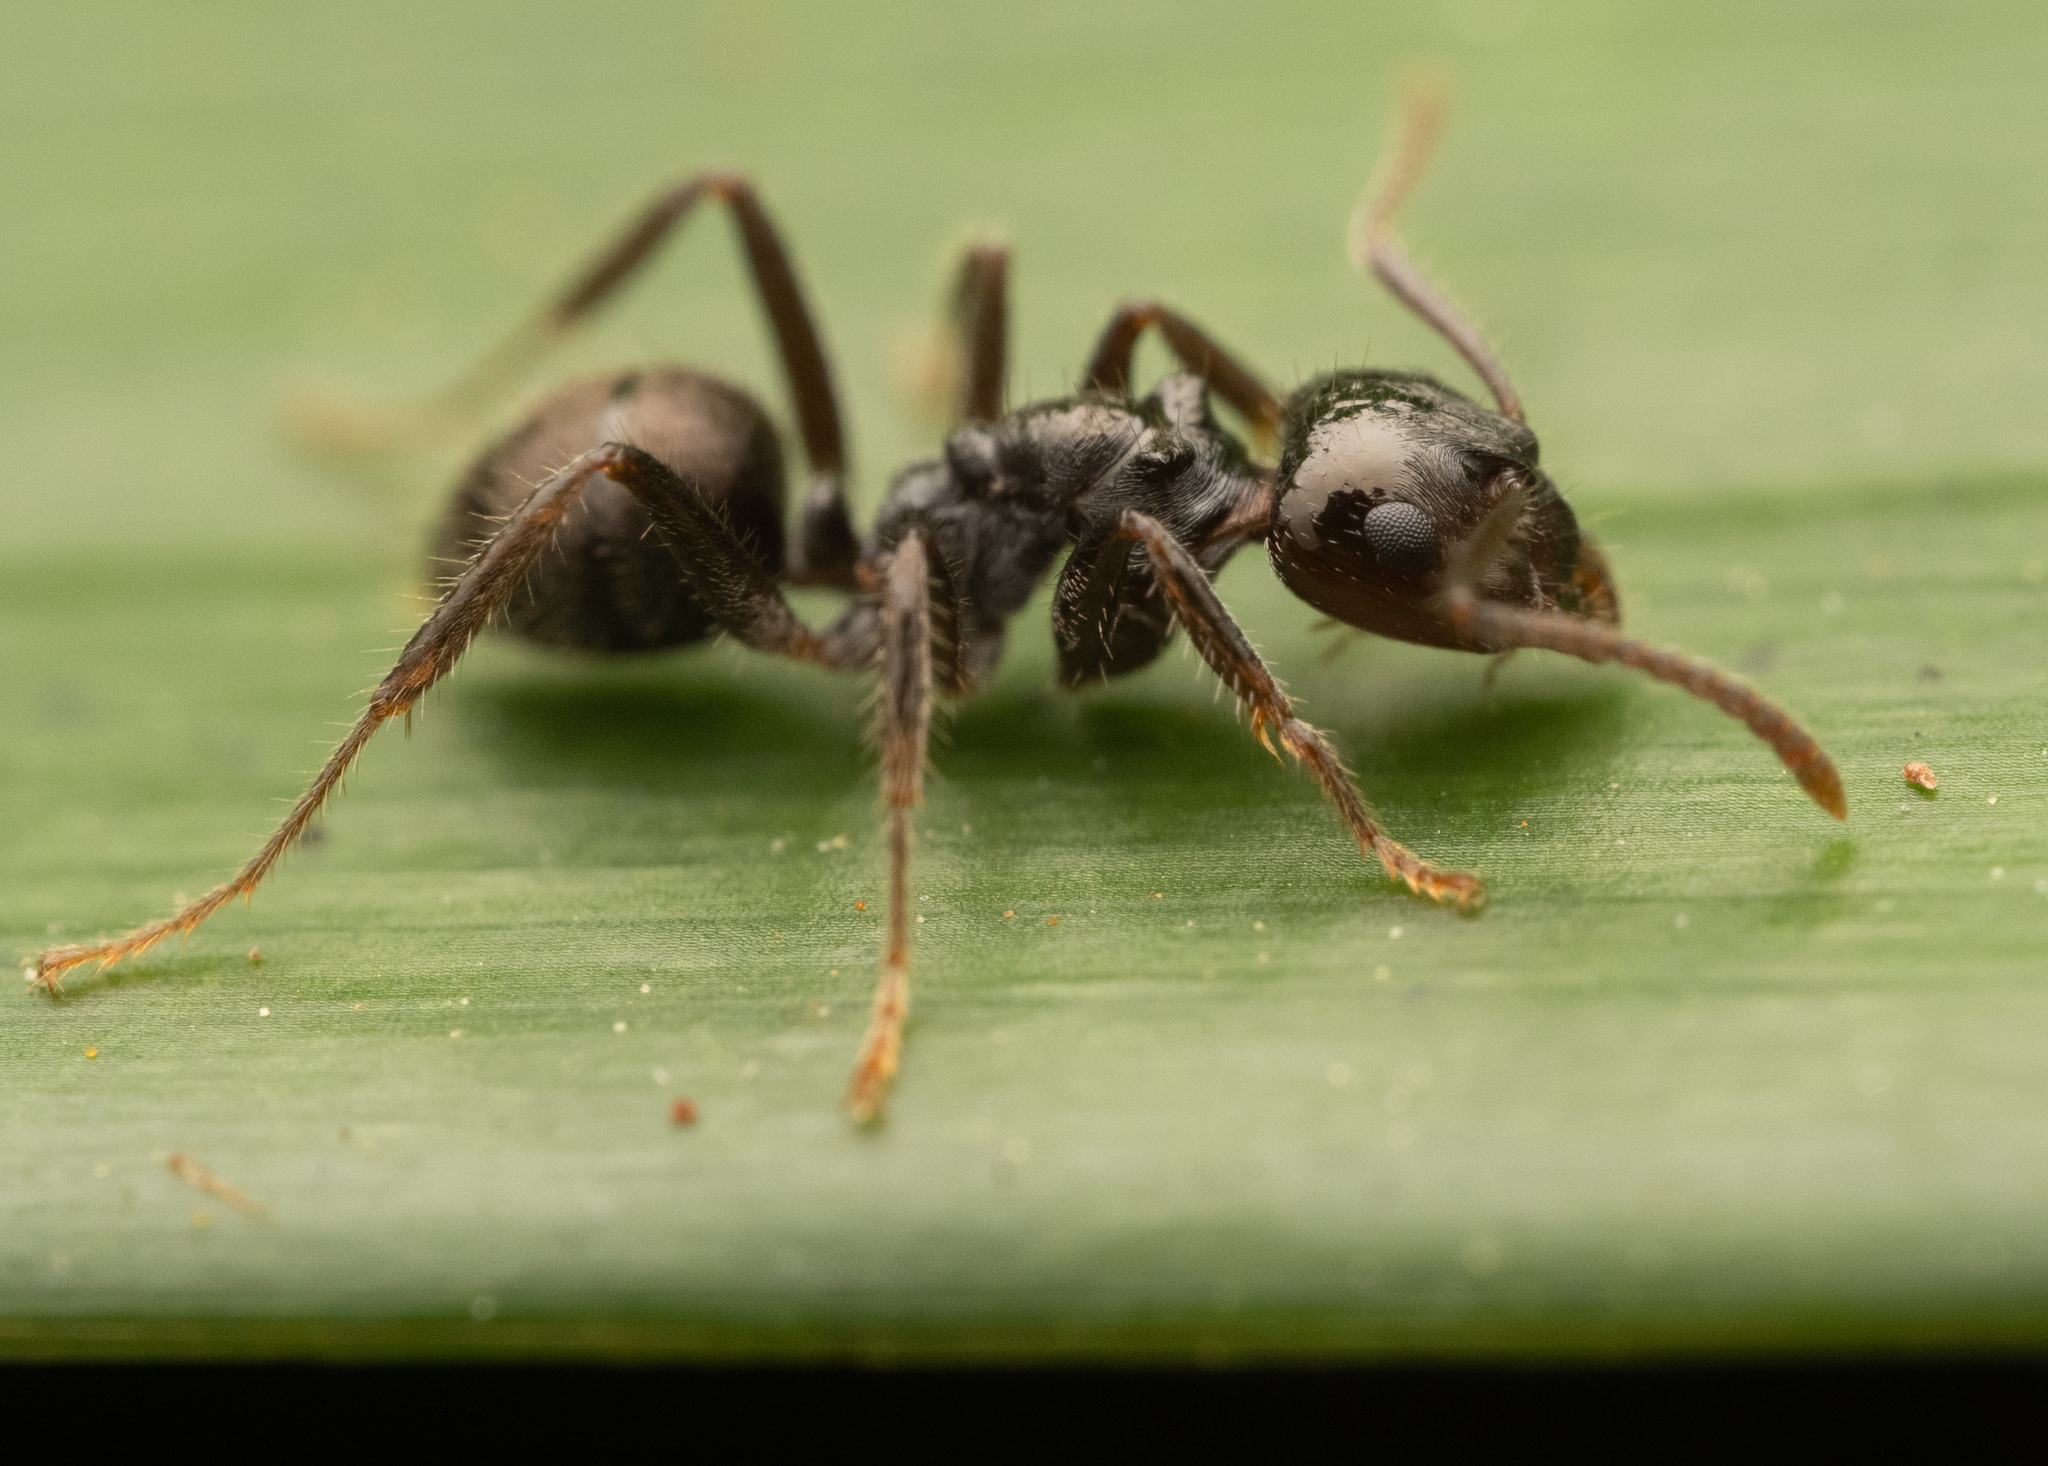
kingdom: Animalia
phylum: Arthropoda
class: Insecta
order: Hymenoptera
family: Formicidae
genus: Notoncus
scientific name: Notoncus capitatus
